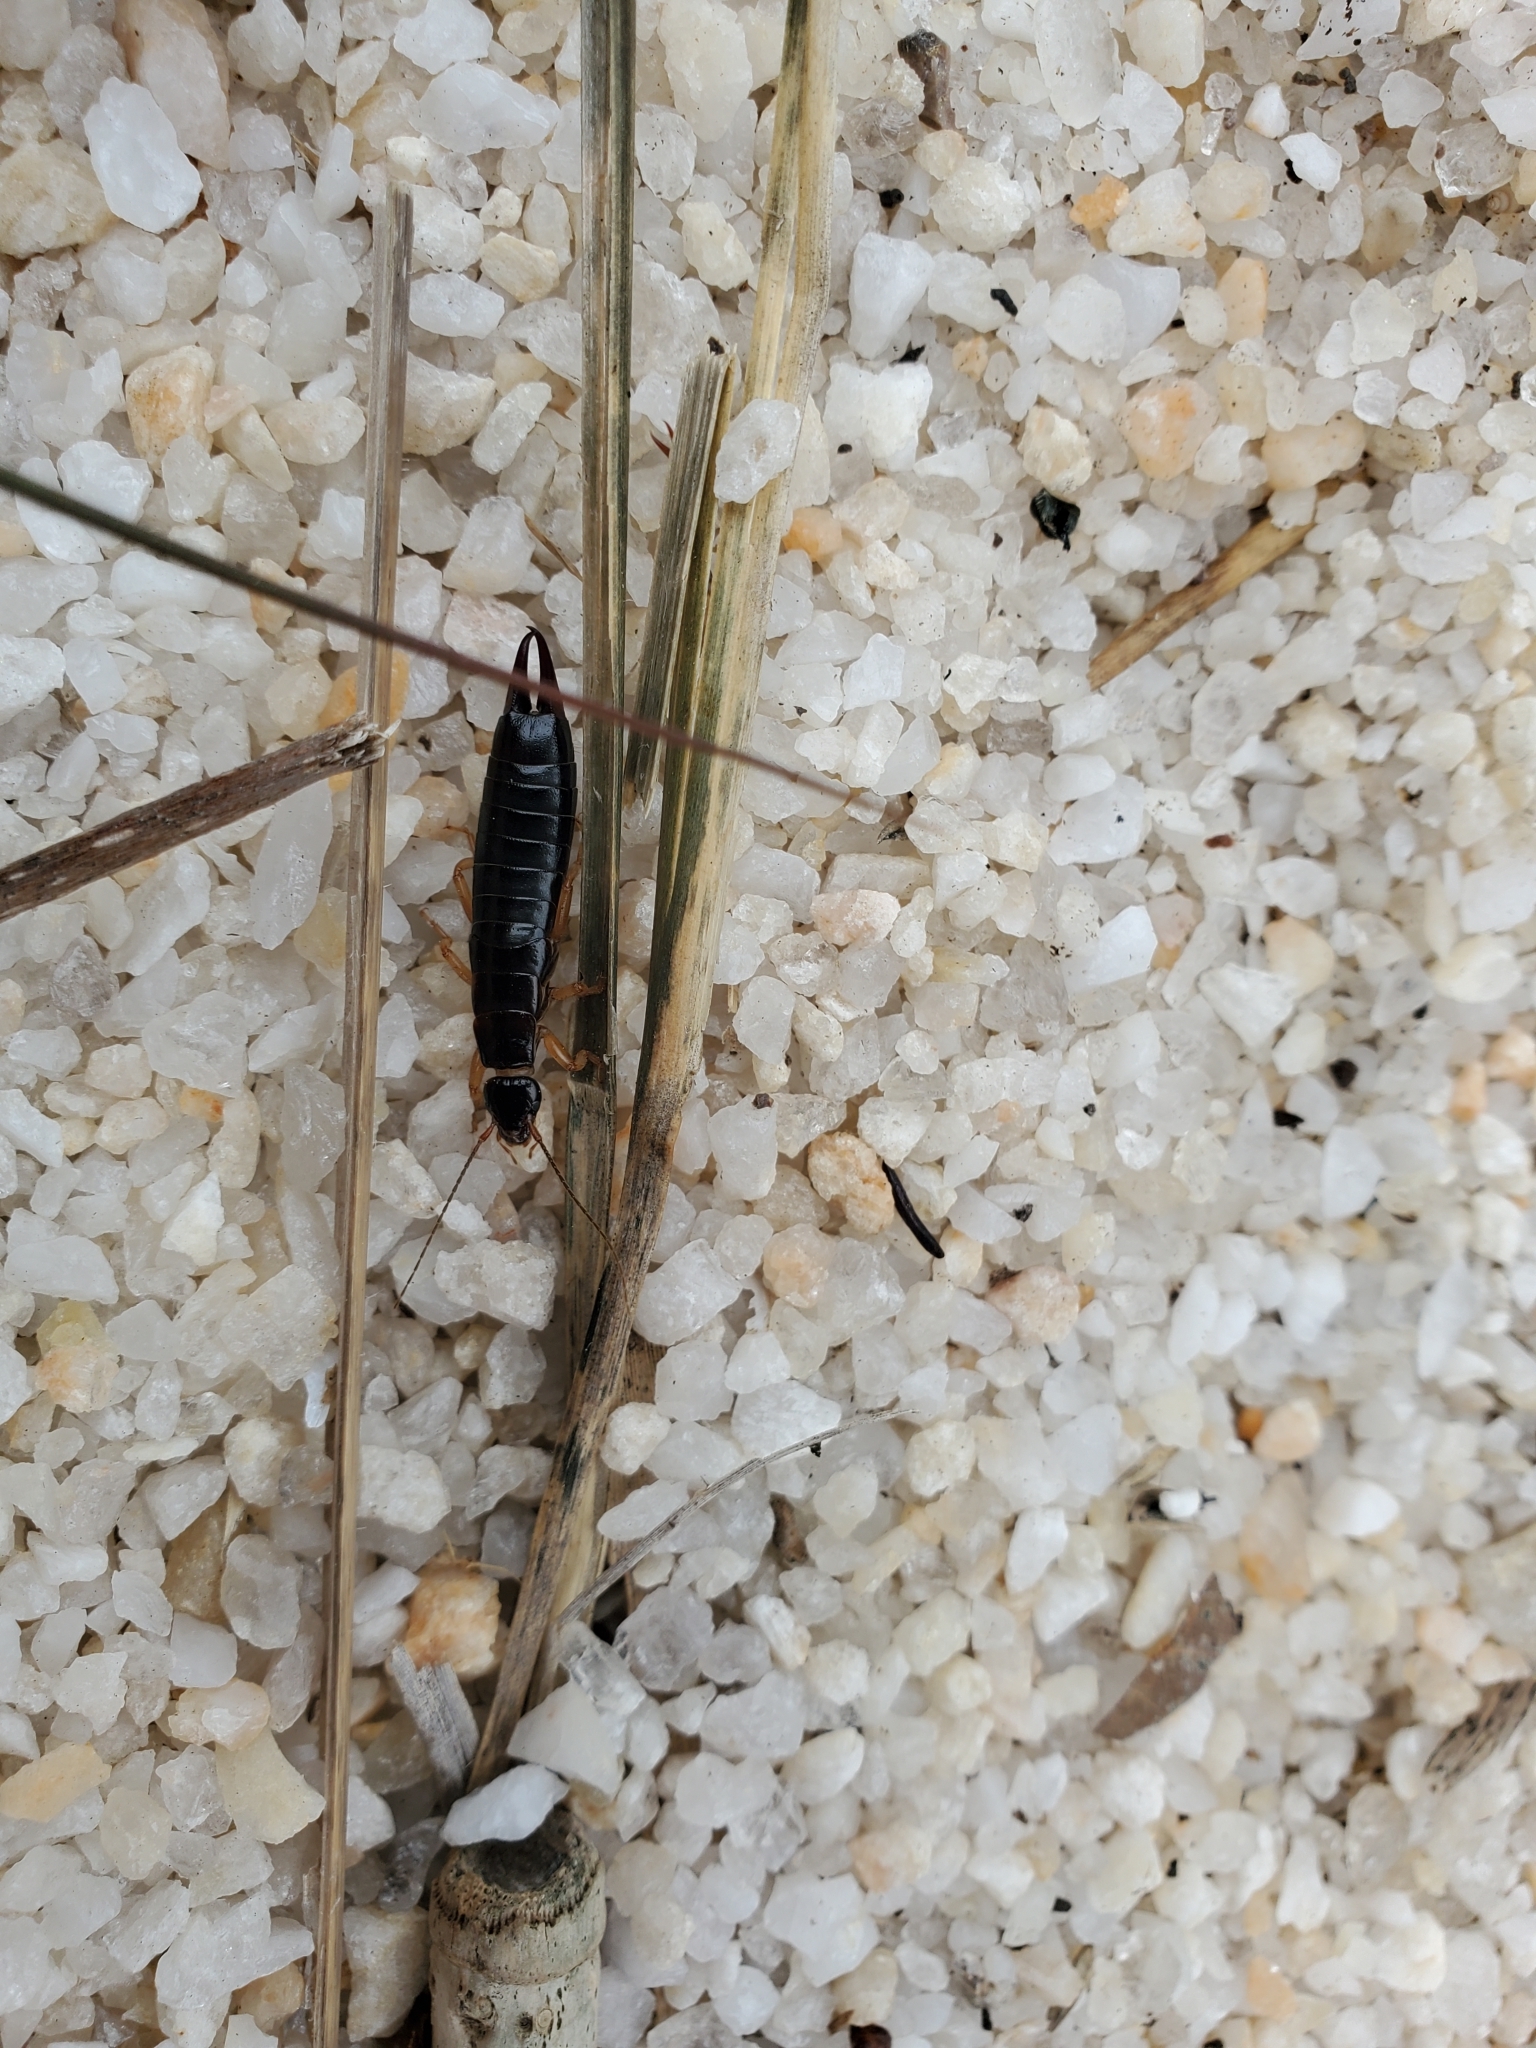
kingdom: Animalia
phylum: Arthropoda
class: Insecta
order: Dermaptera
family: Anisolabididae
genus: Anisolabis
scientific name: Anisolabis maritima
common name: Maritime earwig
